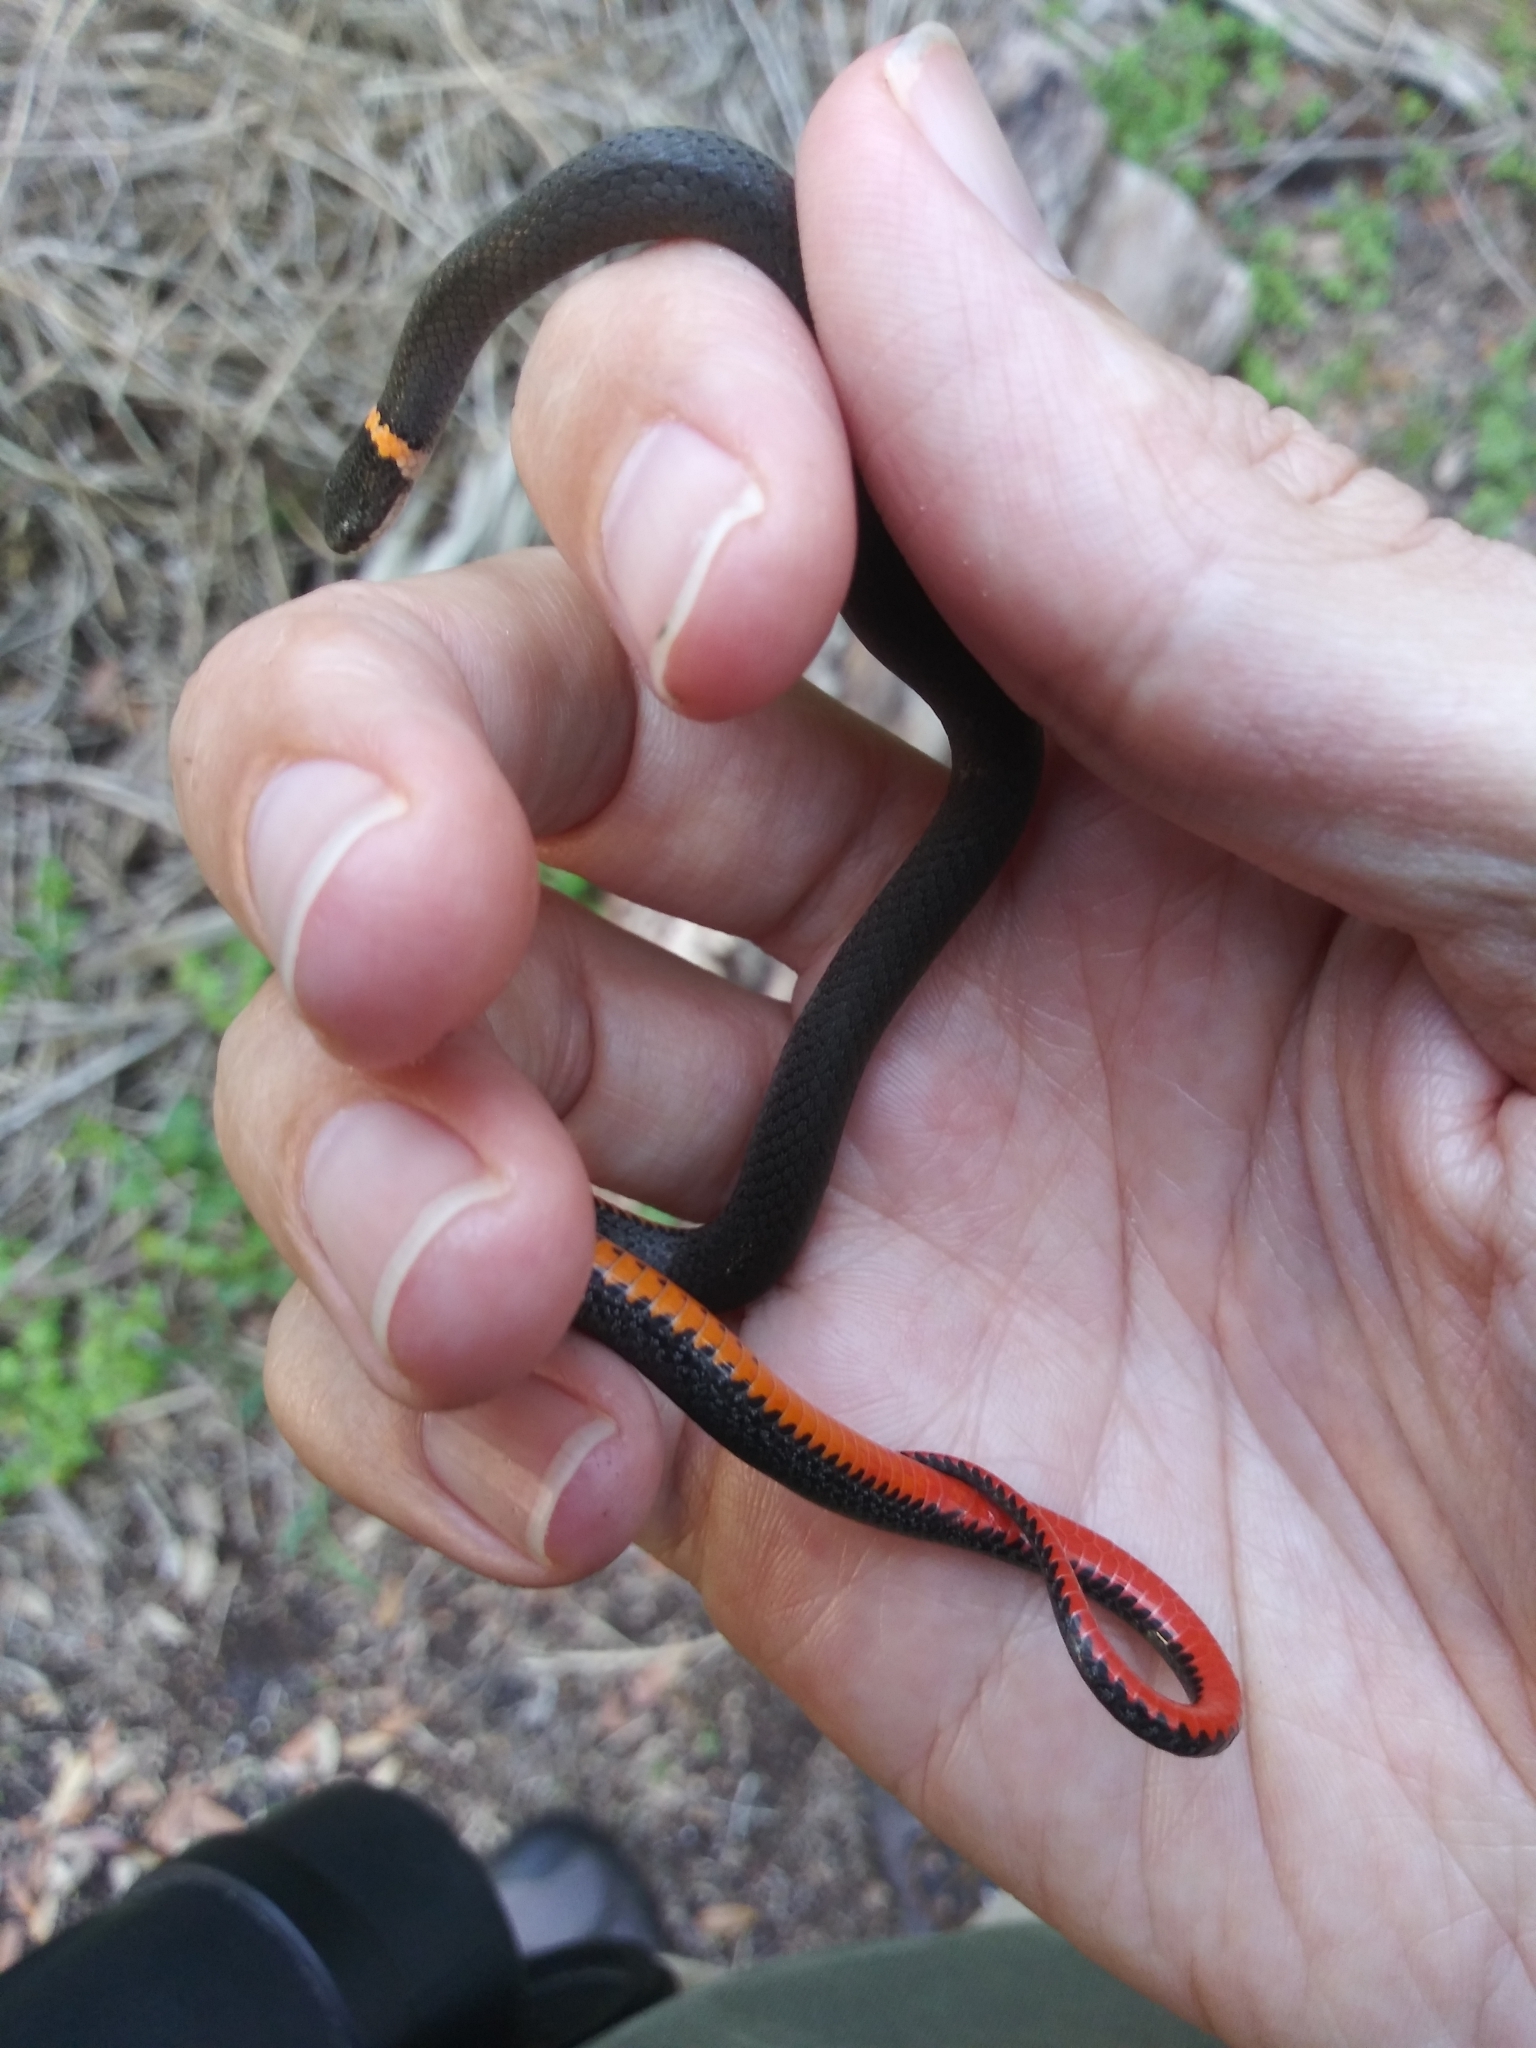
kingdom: Animalia
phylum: Chordata
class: Squamata
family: Colubridae
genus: Diadophis
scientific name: Diadophis punctatus
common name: Ringneck snake
